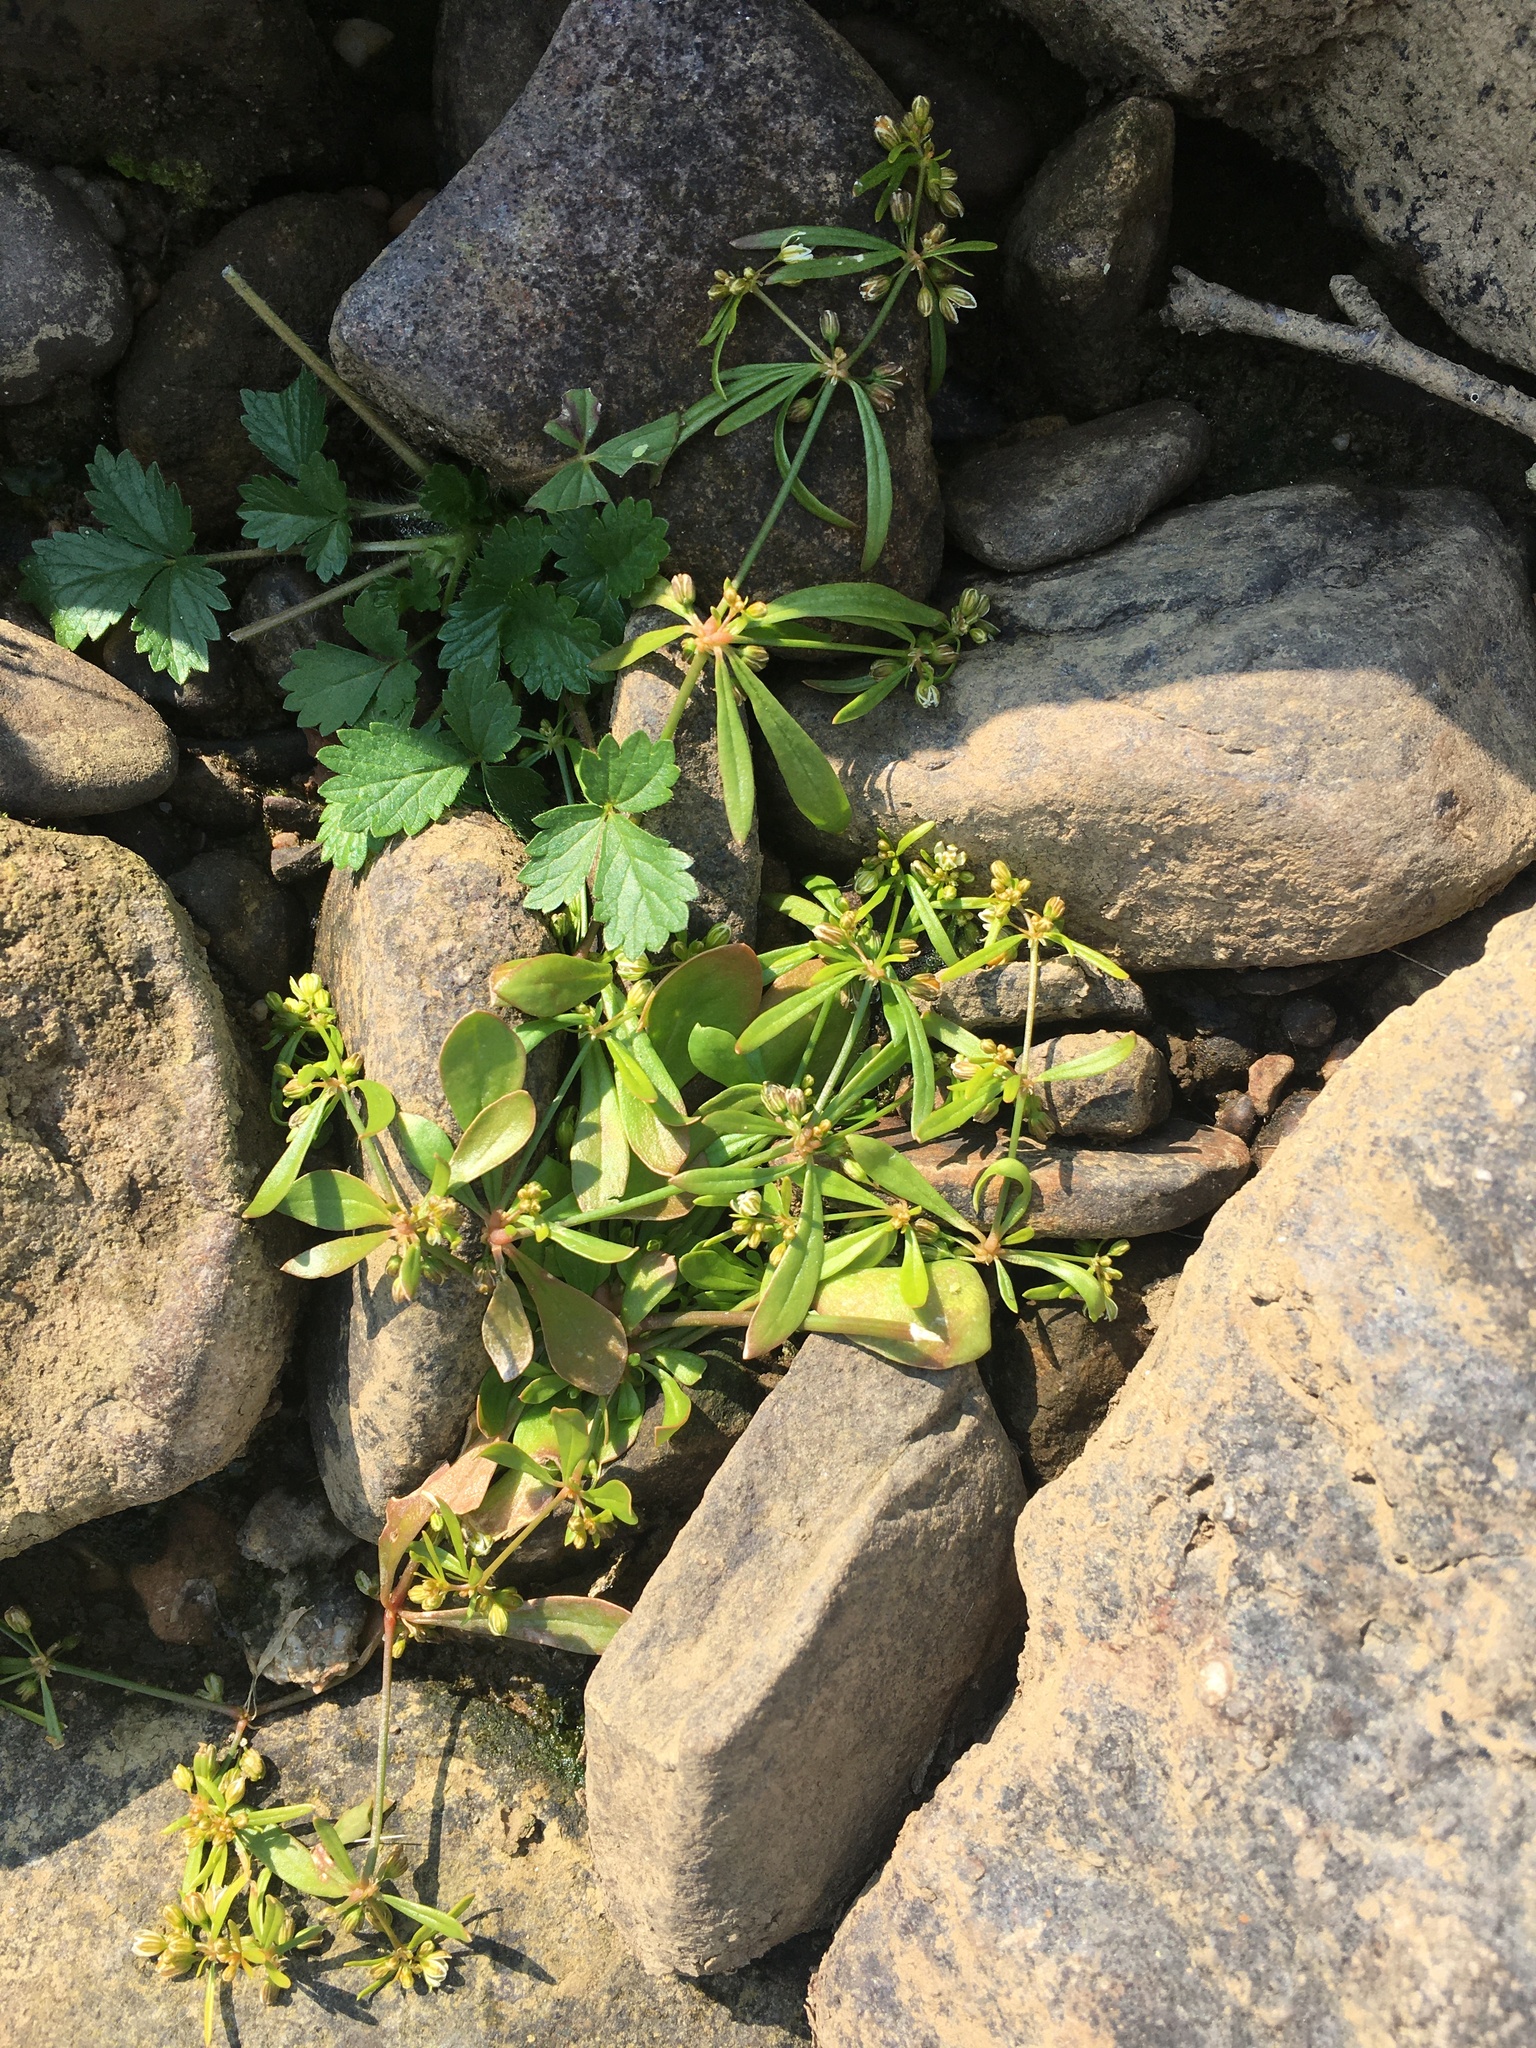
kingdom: Plantae
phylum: Tracheophyta
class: Magnoliopsida
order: Caryophyllales
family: Molluginaceae
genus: Mollugo
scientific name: Mollugo verticillata
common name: Green carpetweed
